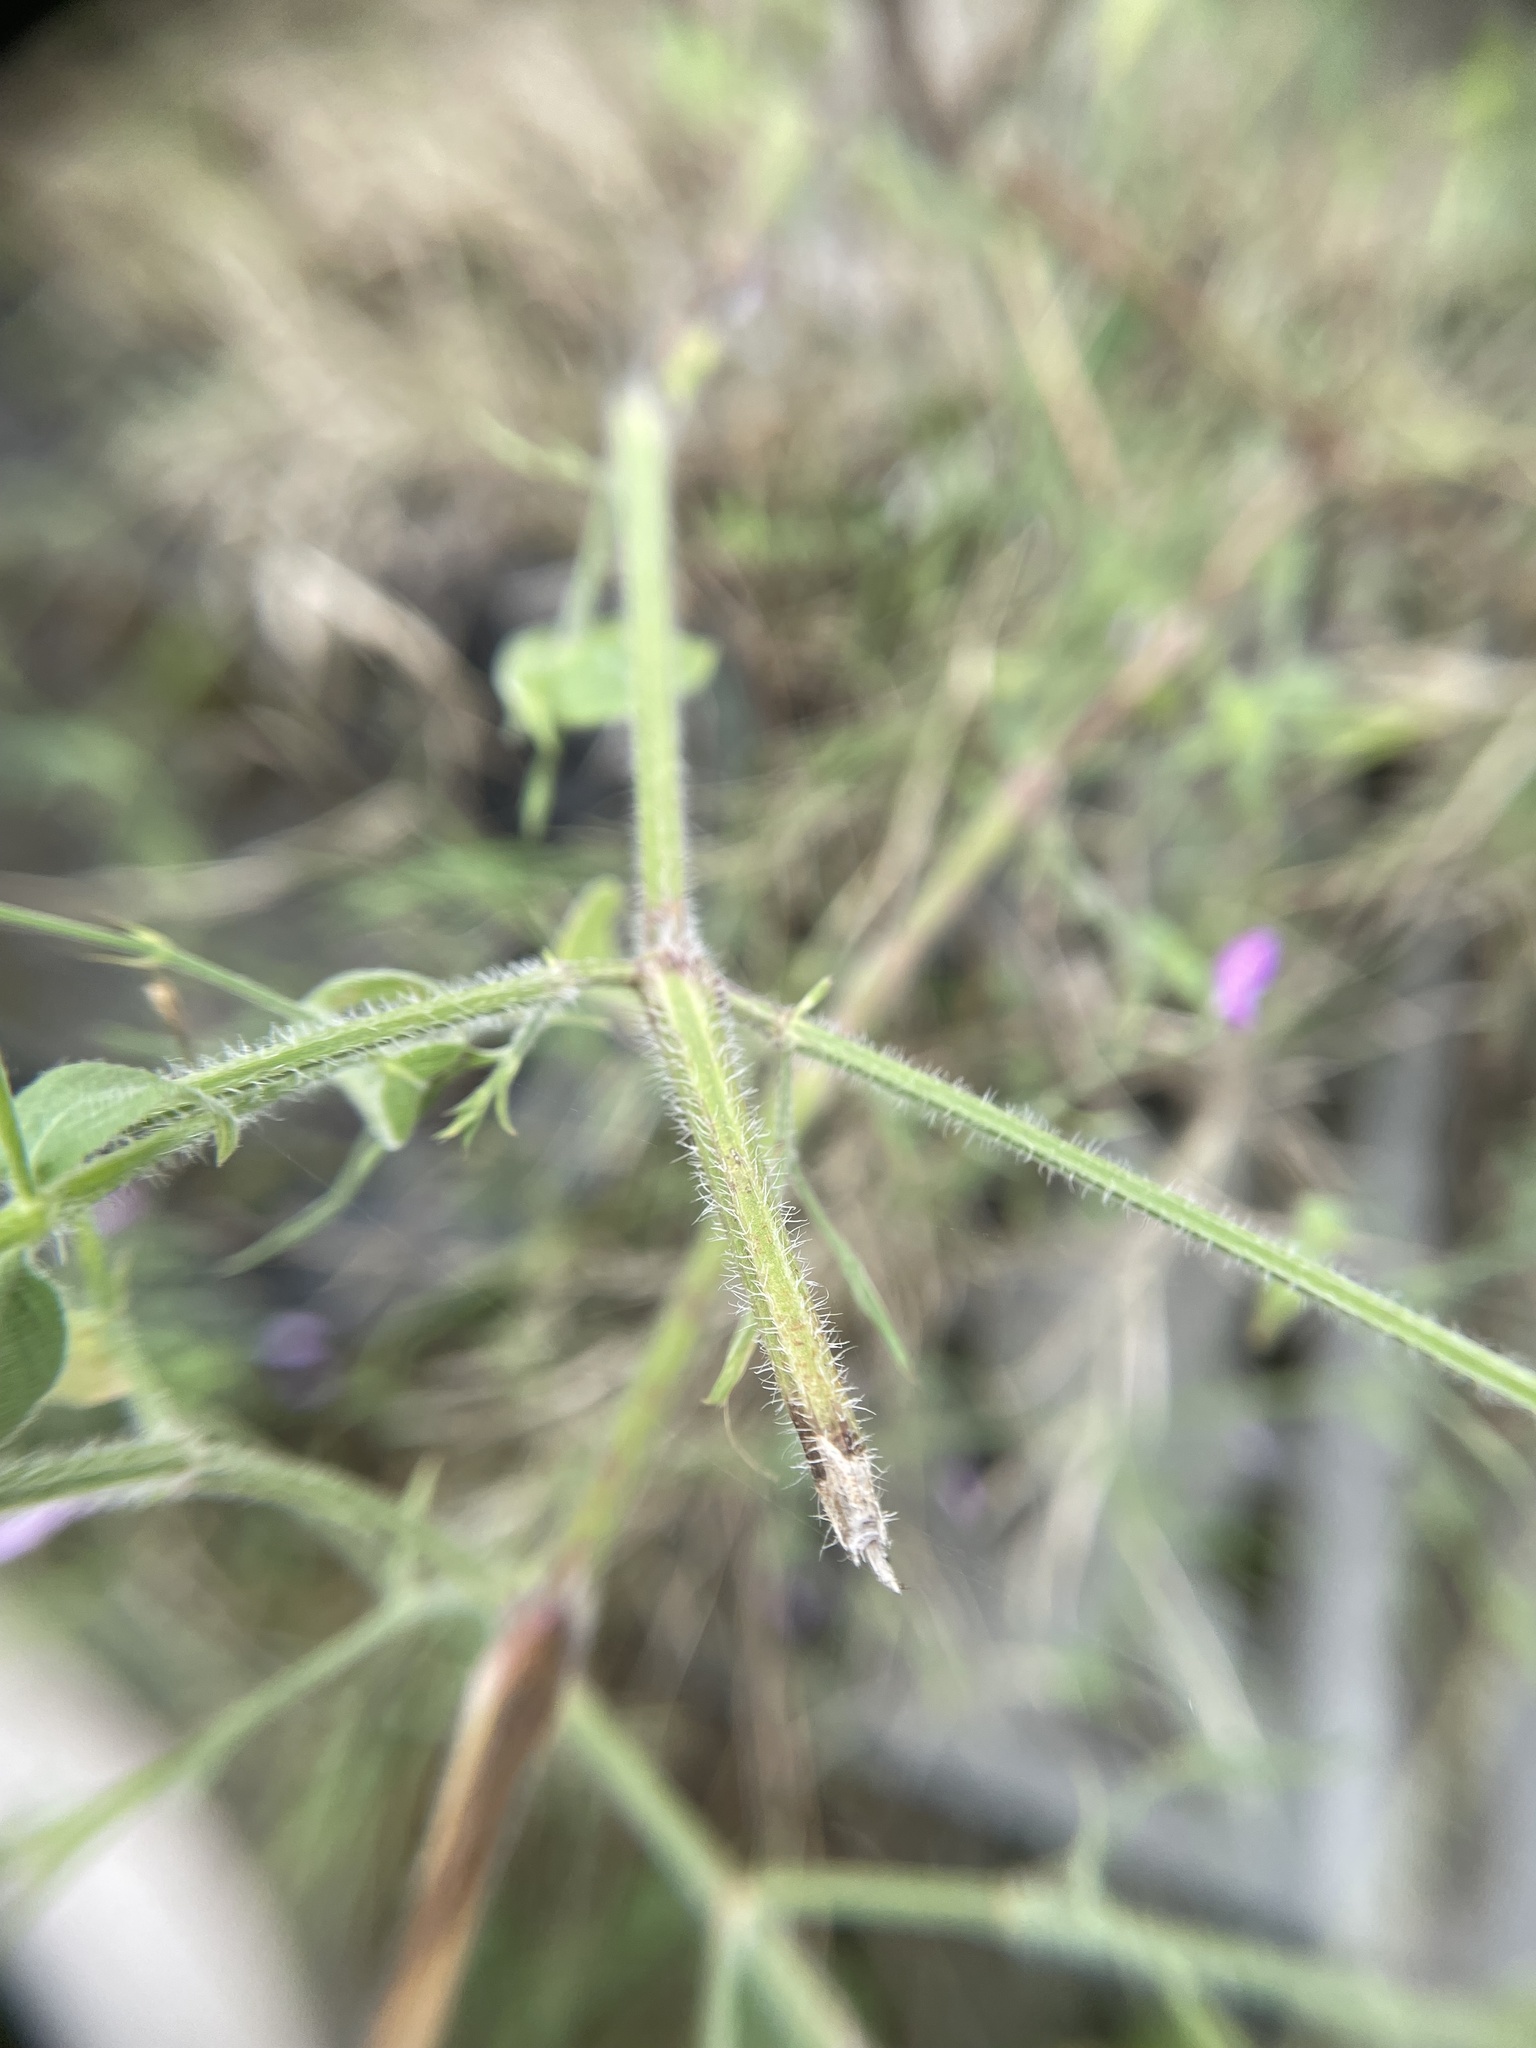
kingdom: Plantae
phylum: Tracheophyta
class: Magnoliopsida
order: Lamiales
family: Acanthaceae
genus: Dicliptera
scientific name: Dicliptera paniculata
